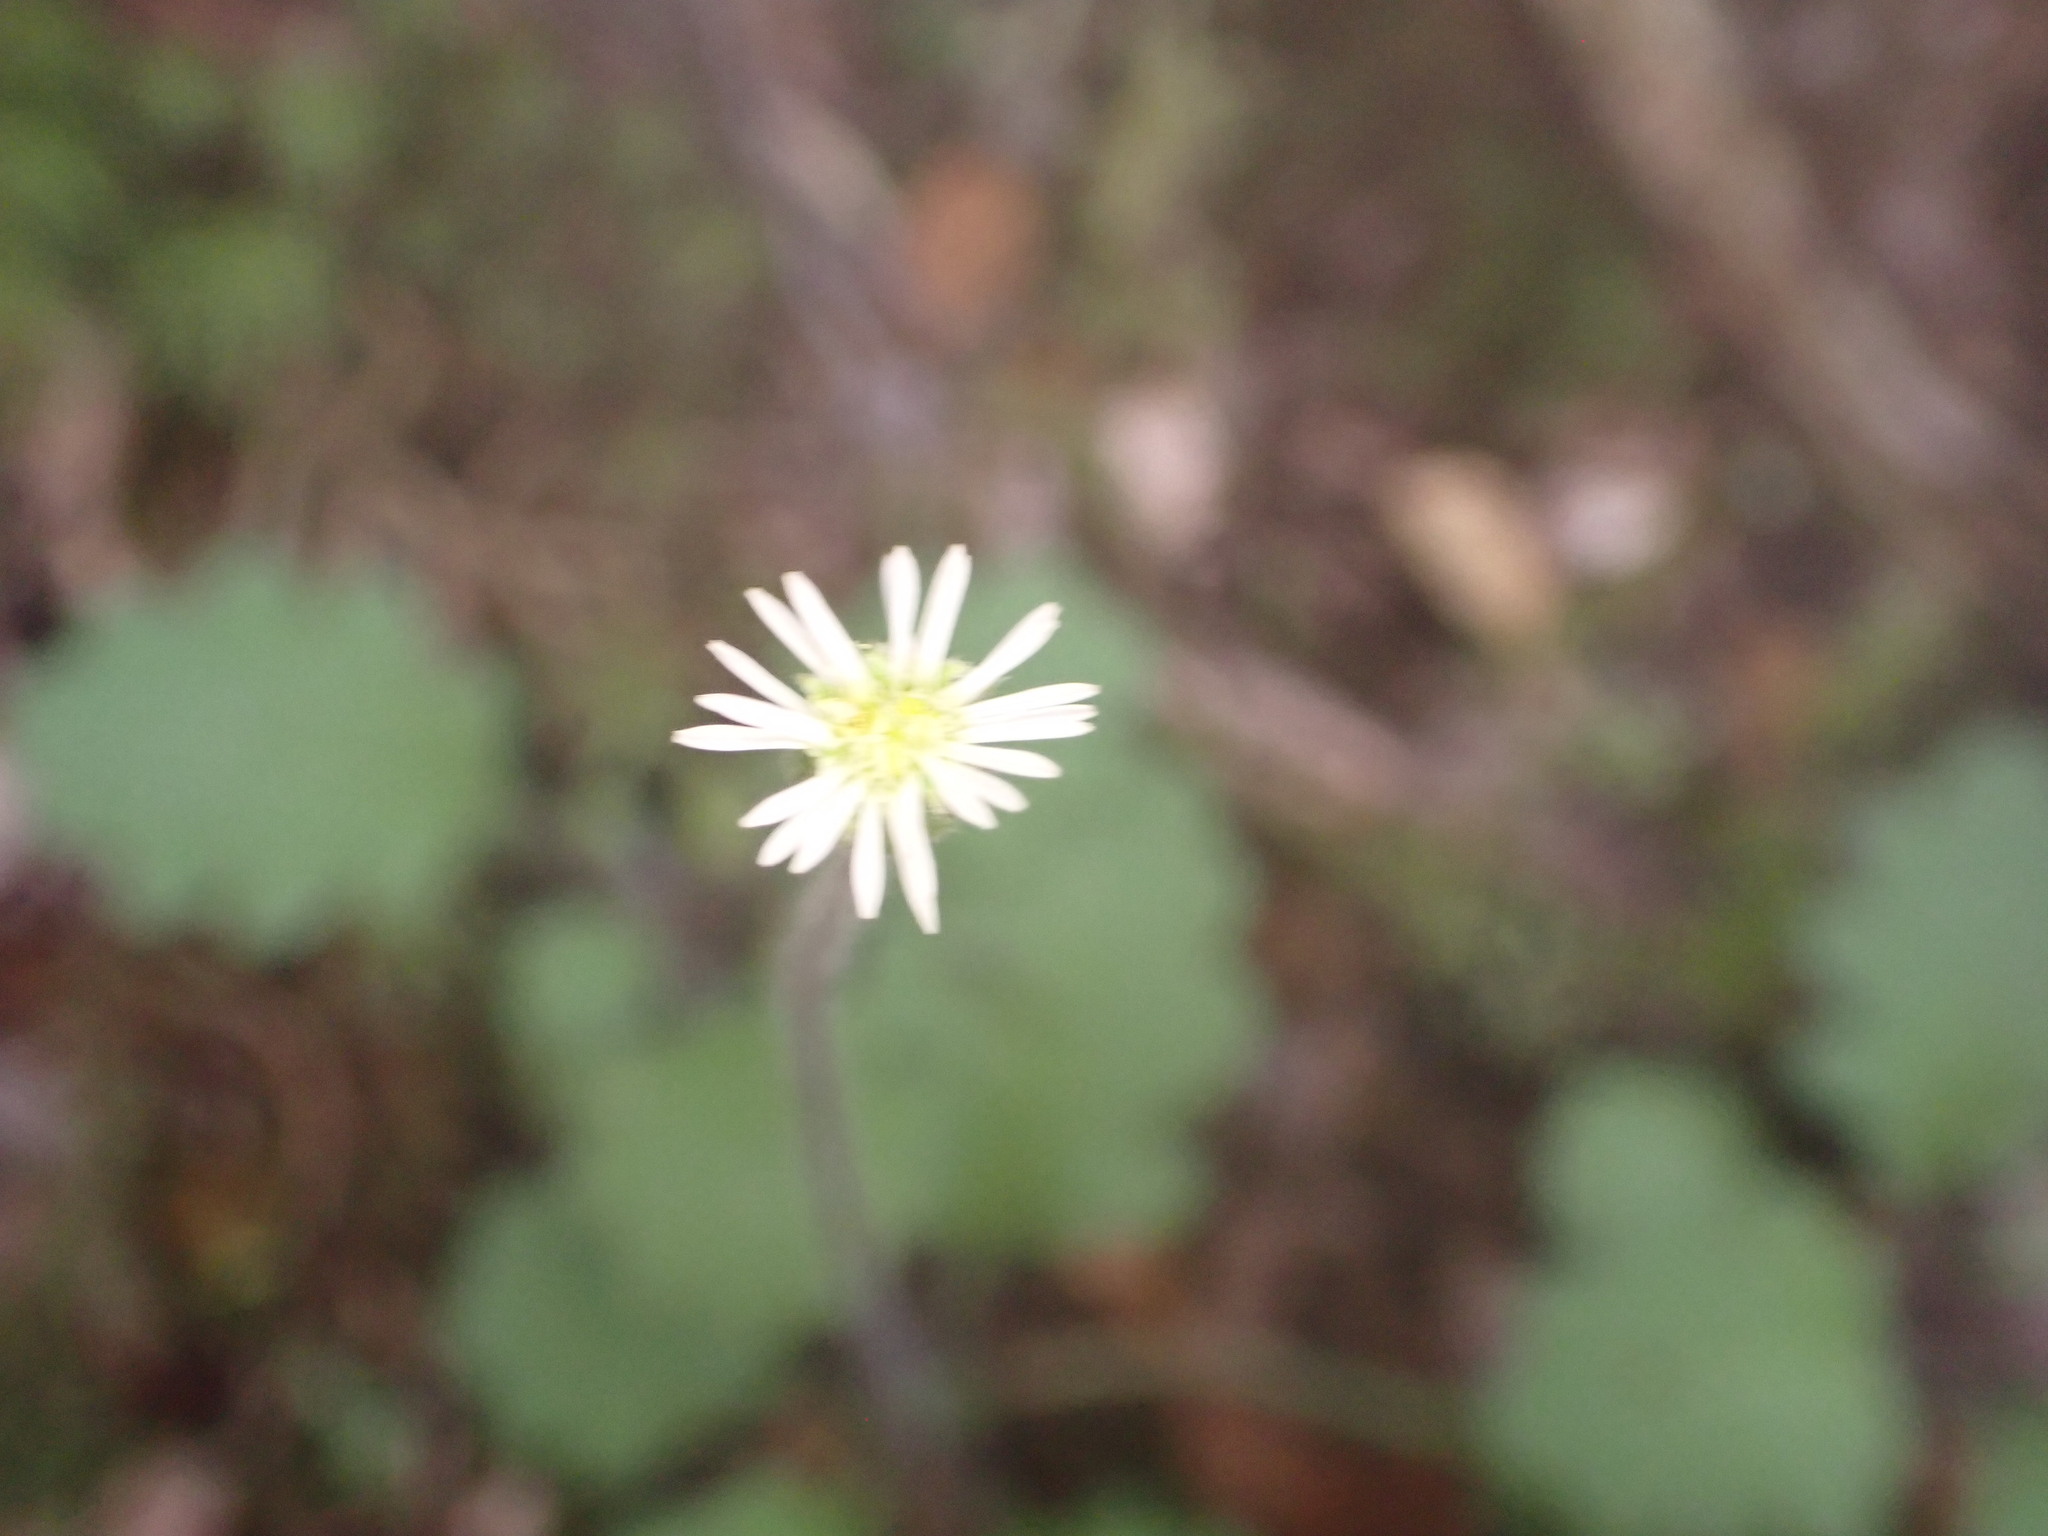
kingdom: Plantae
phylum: Tracheophyta
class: Magnoliopsida
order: Asterales
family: Asteraceae
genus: Lagenophora
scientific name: Lagenophora pinnatifida
